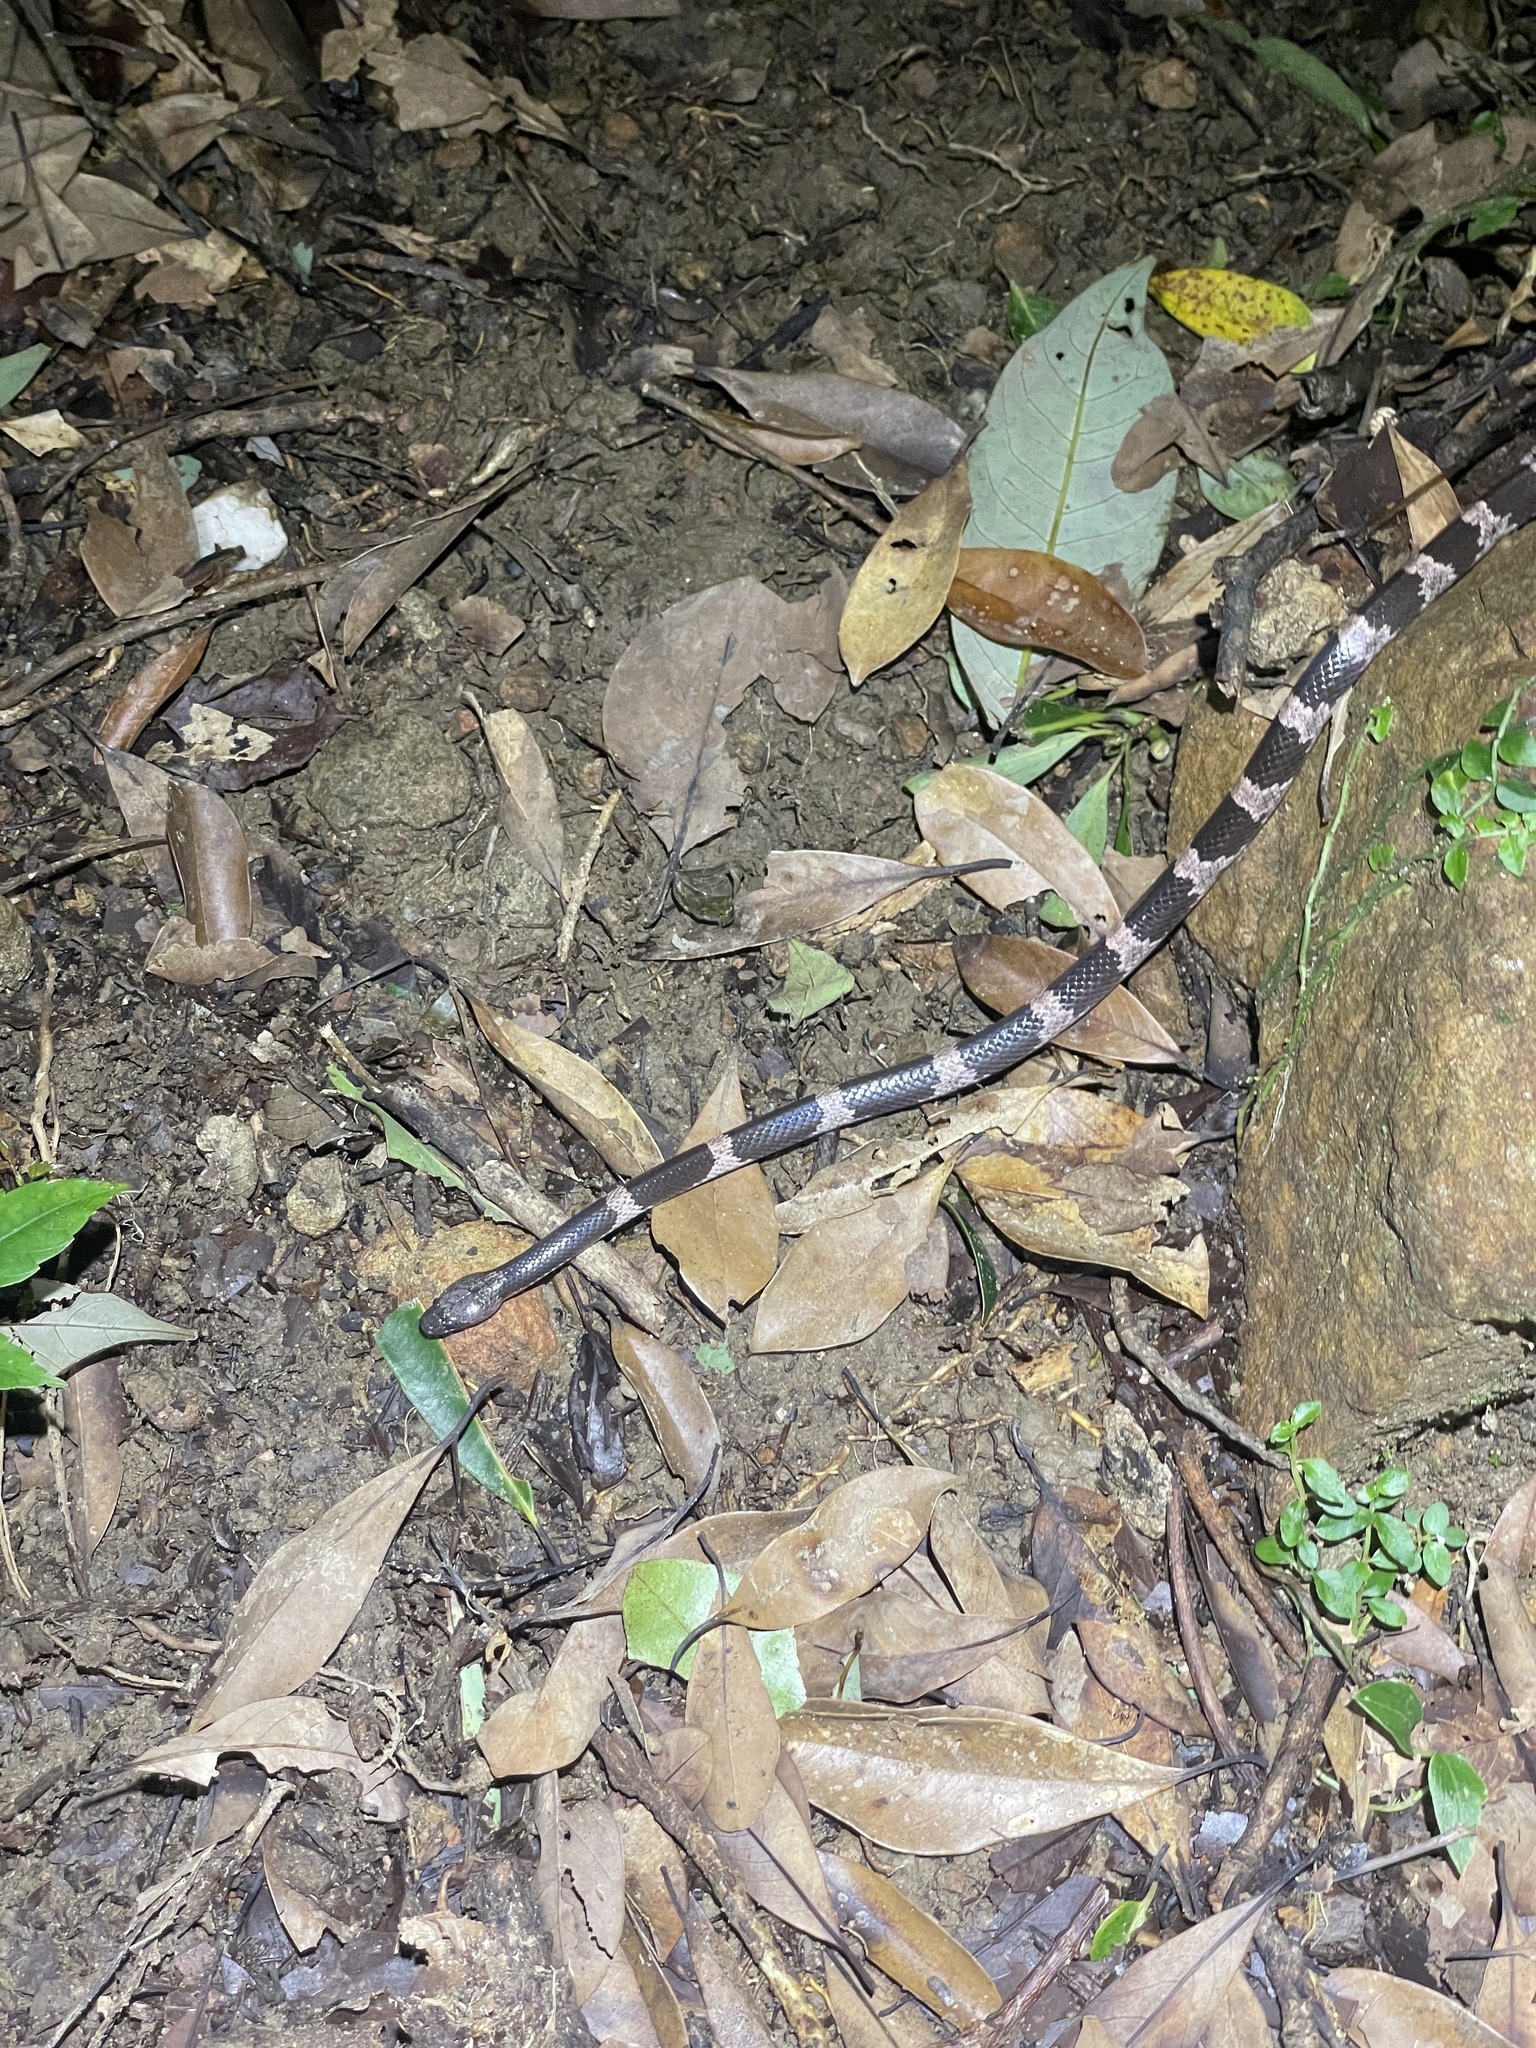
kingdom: Animalia
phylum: Chordata
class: Squamata
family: Colubridae
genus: Lycodon
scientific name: Lycodon futsingensis
